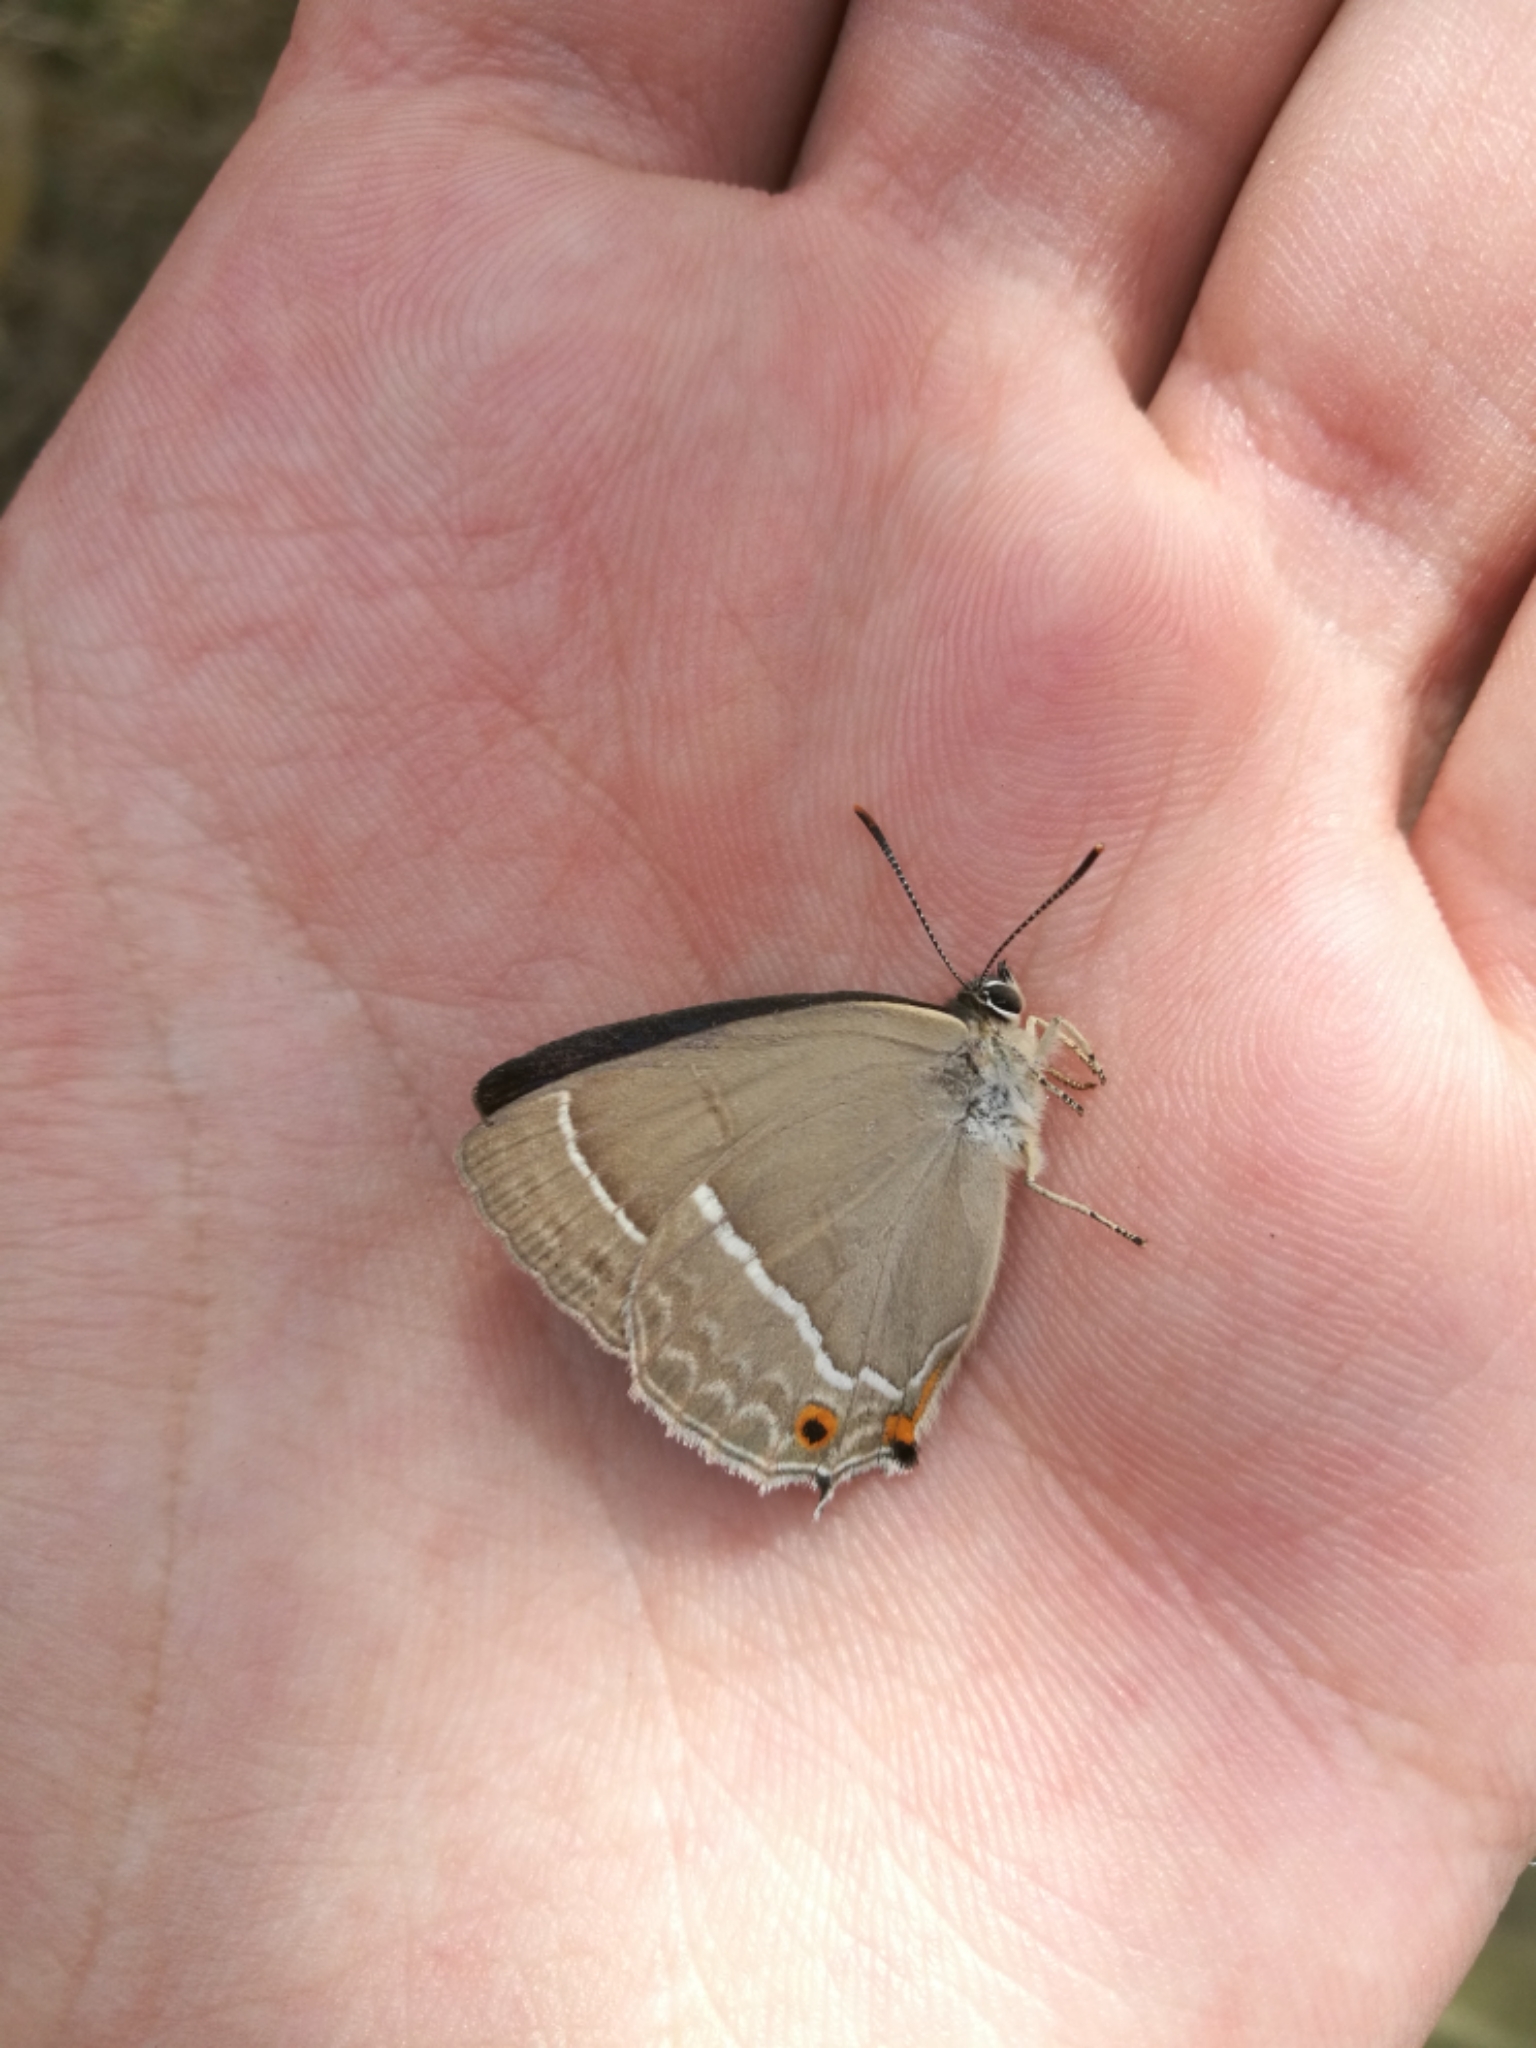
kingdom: Animalia
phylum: Arthropoda
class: Insecta
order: Lepidoptera
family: Lycaenidae
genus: Quercusia
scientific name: Quercusia quercus
